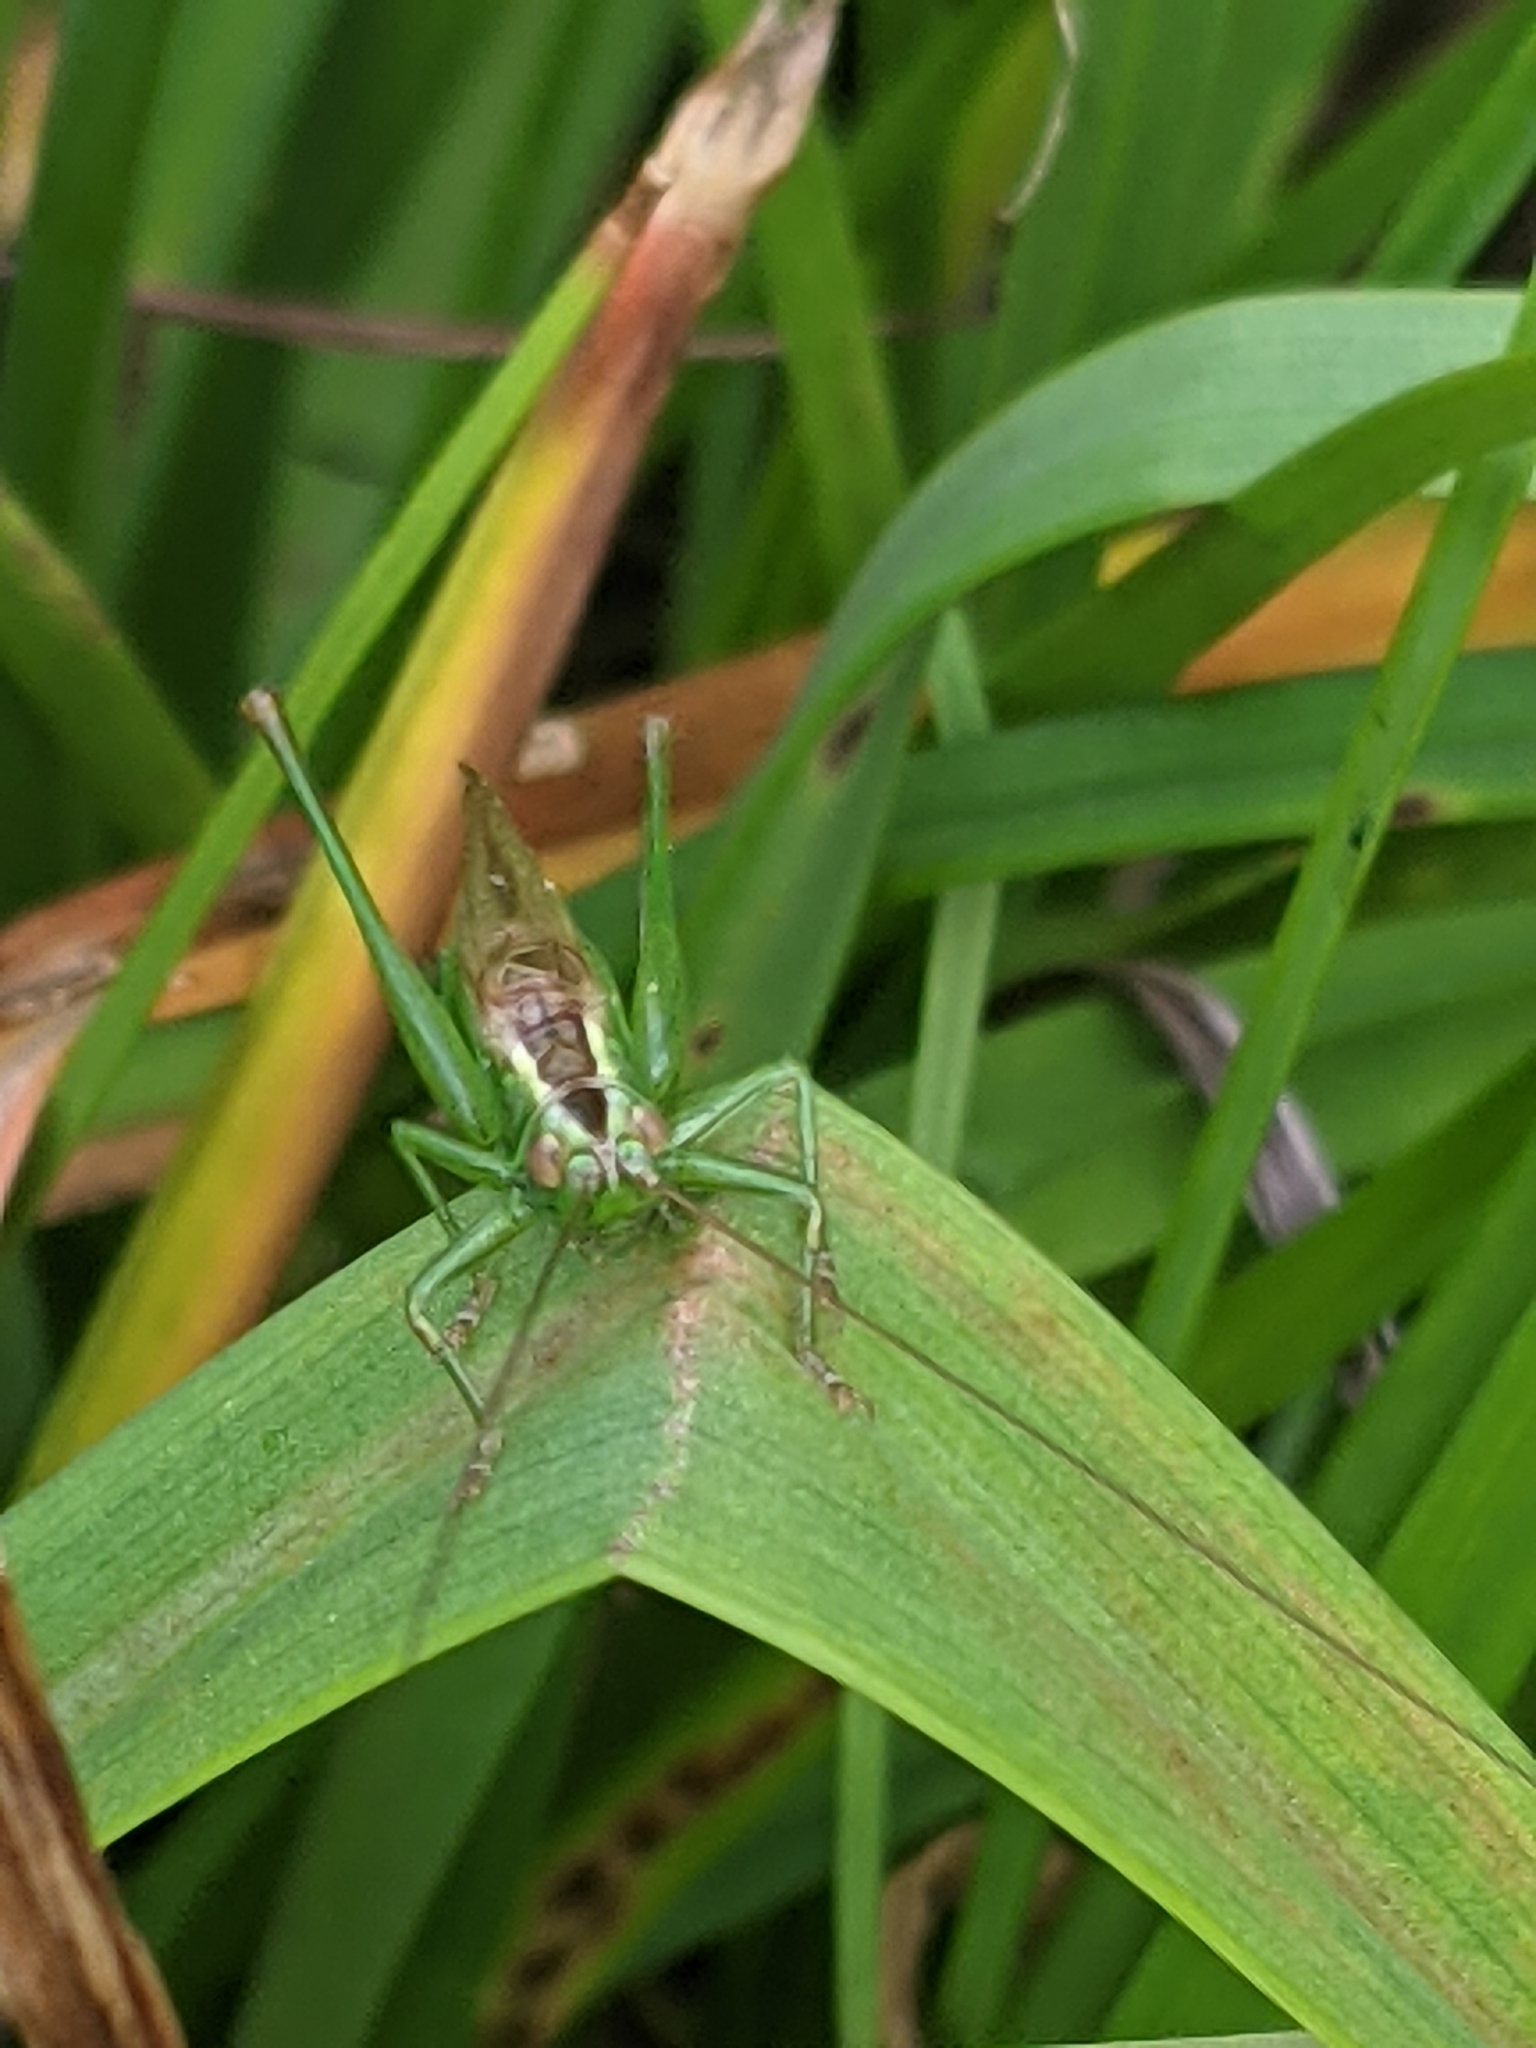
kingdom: Animalia
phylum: Arthropoda
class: Insecta
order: Orthoptera
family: Tettigoniidae
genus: Conocephalus
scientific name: Conocephalus fuscus
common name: Long-winged conehead
